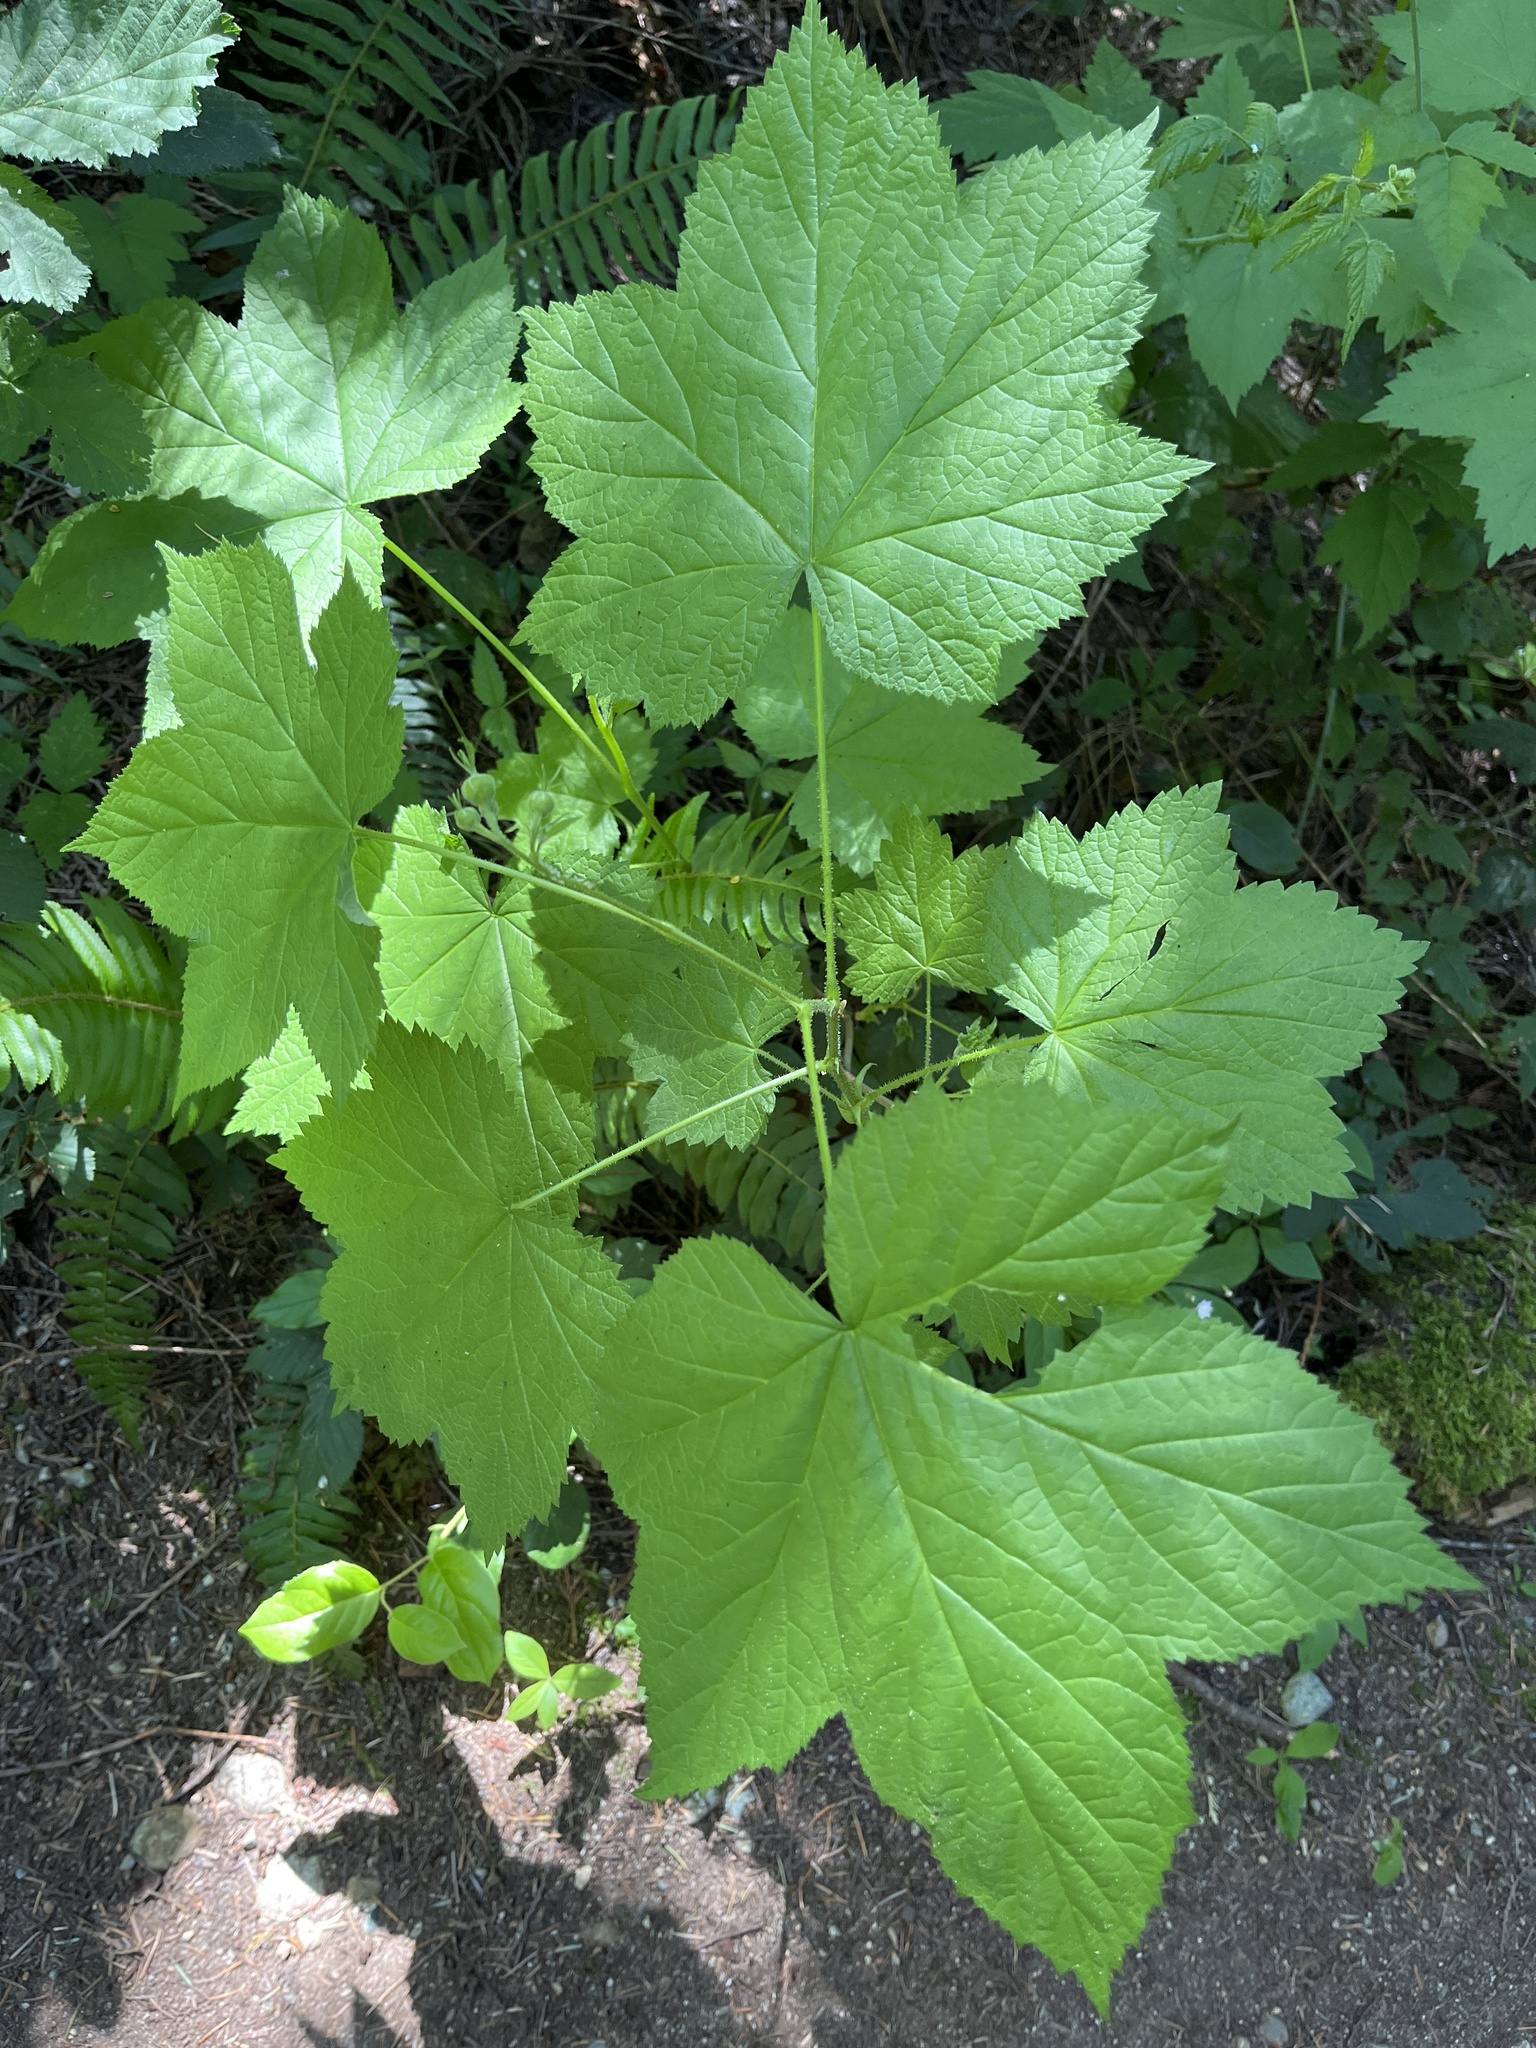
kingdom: Plantae
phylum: Tracheophyta
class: Magnoliopsida
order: Rosales
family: Rosaceae
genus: Rubus
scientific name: Rubus parviflorus
